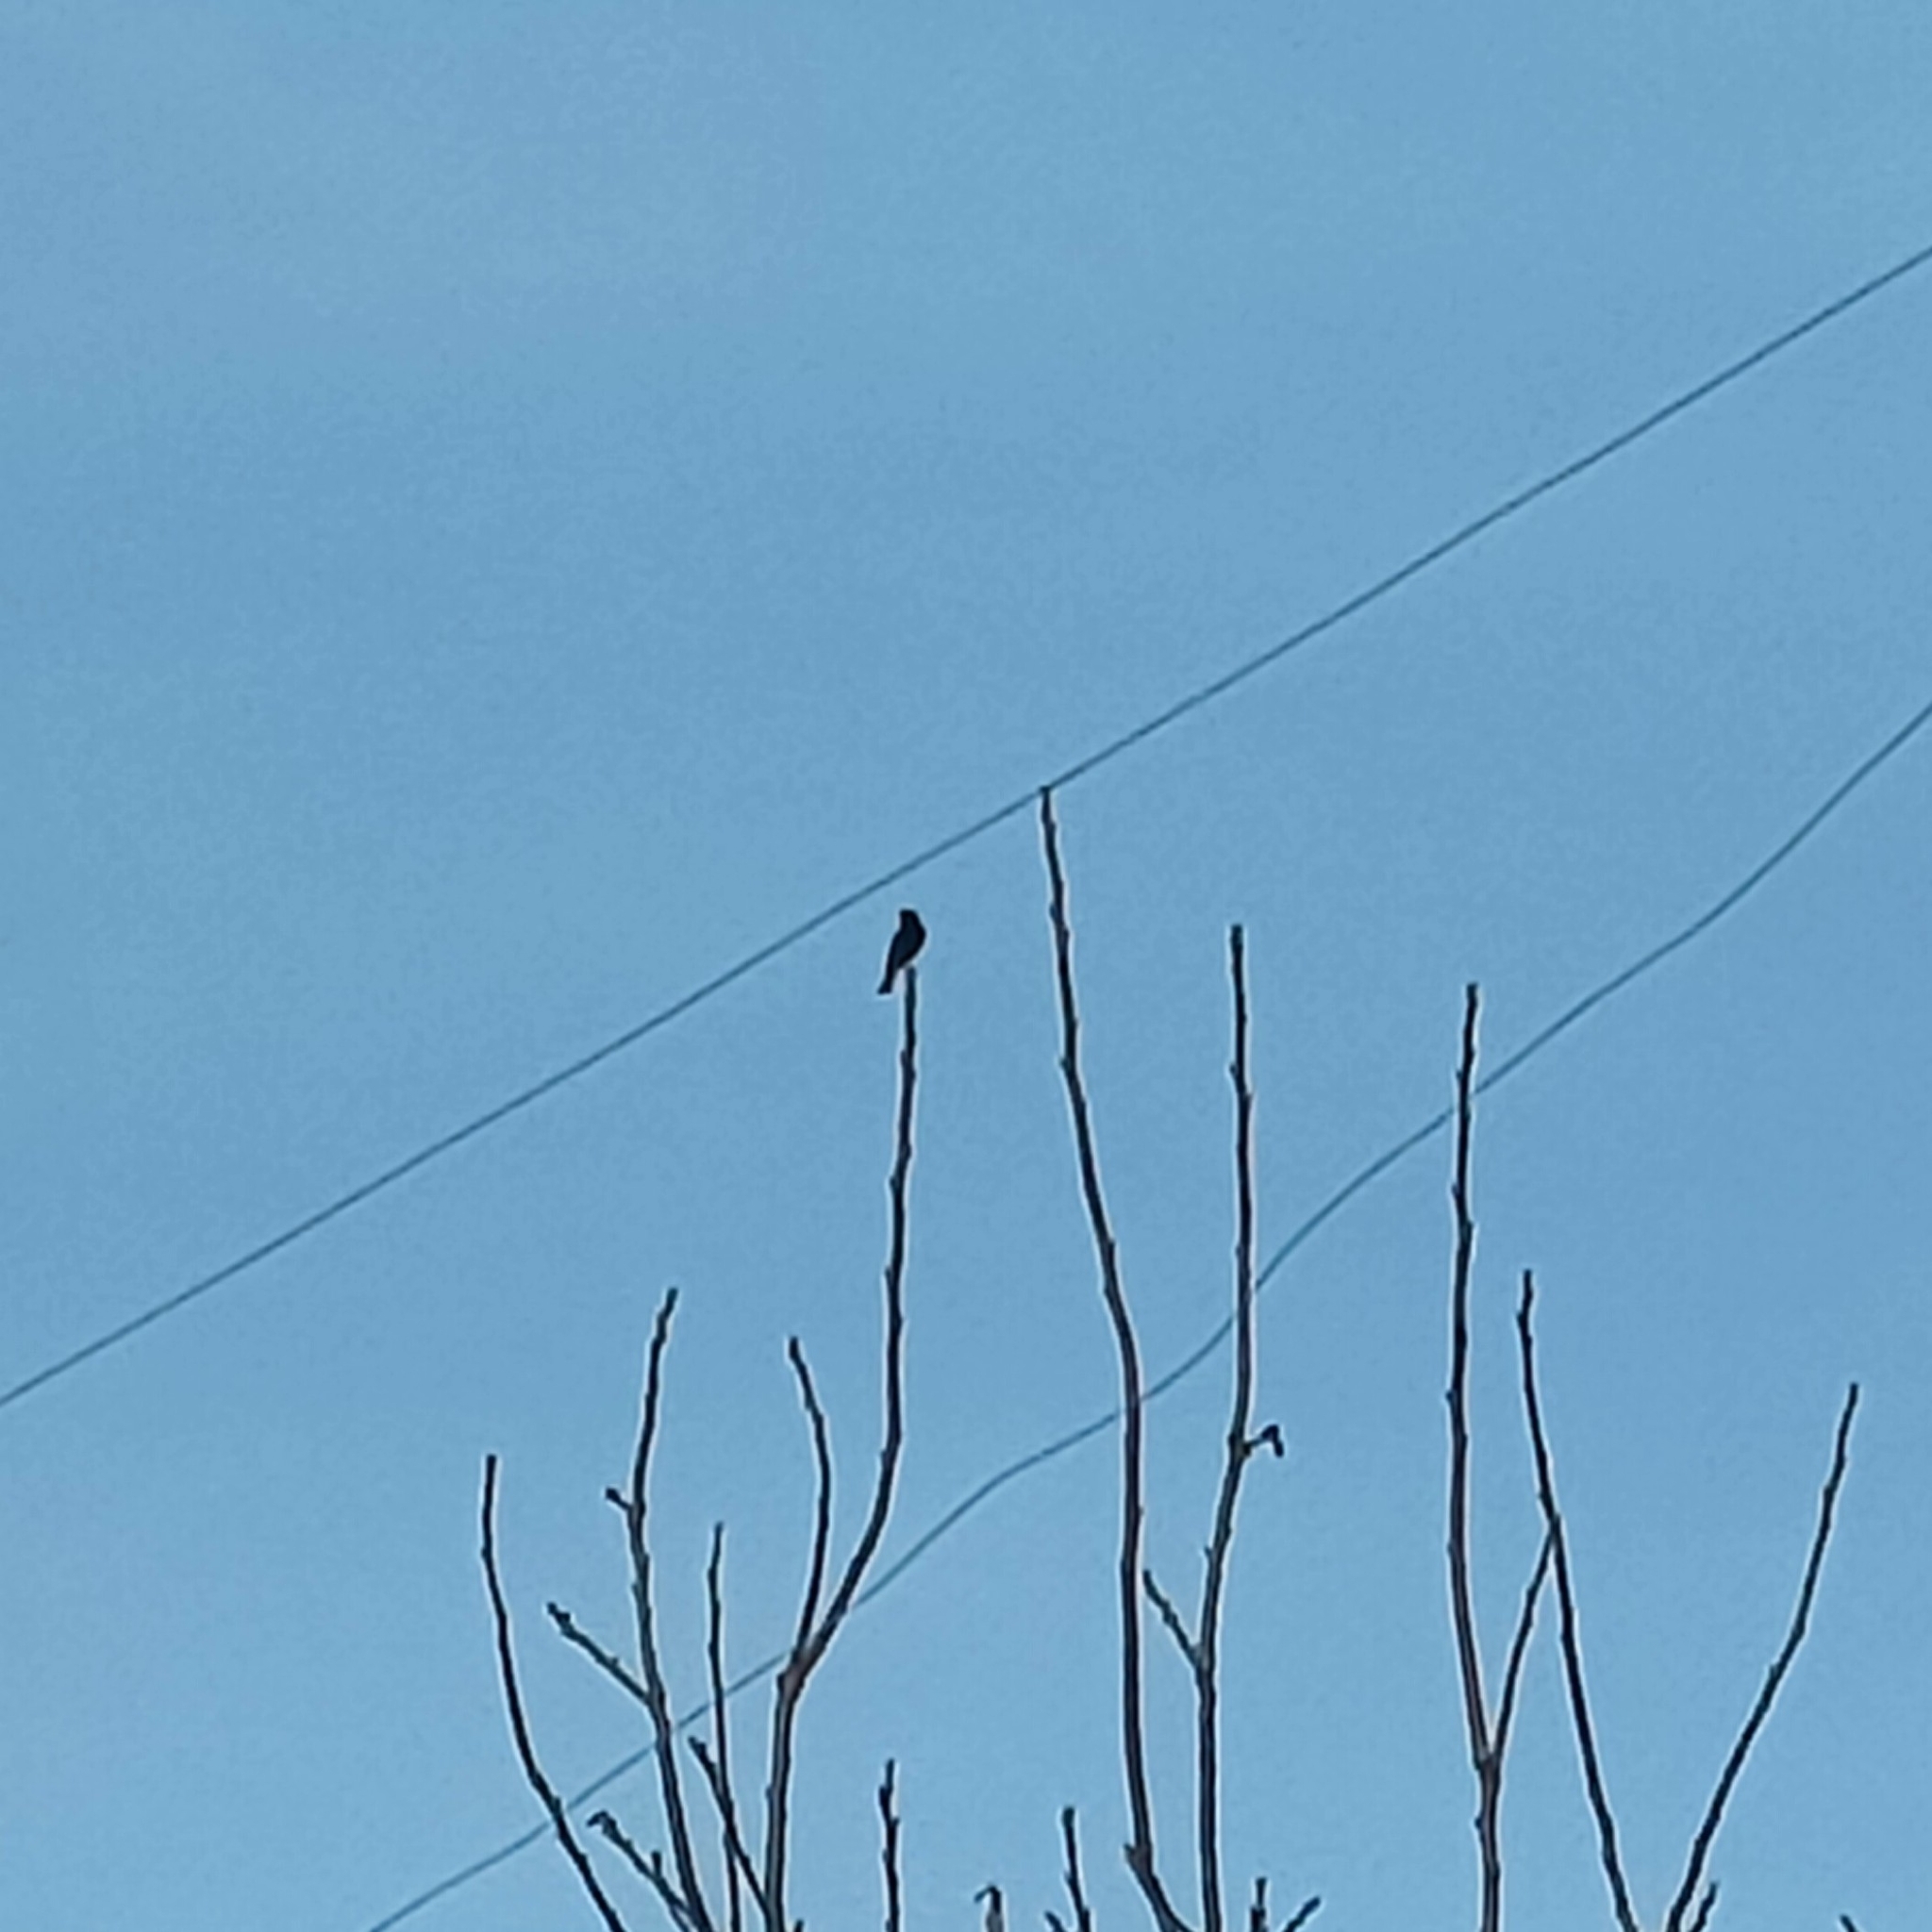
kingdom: Animalia
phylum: Chordata
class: Aves
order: Passeriformes
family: Muscicapidae
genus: Phoenicurus
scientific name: Phoenicurus ochruros
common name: Black redstart
